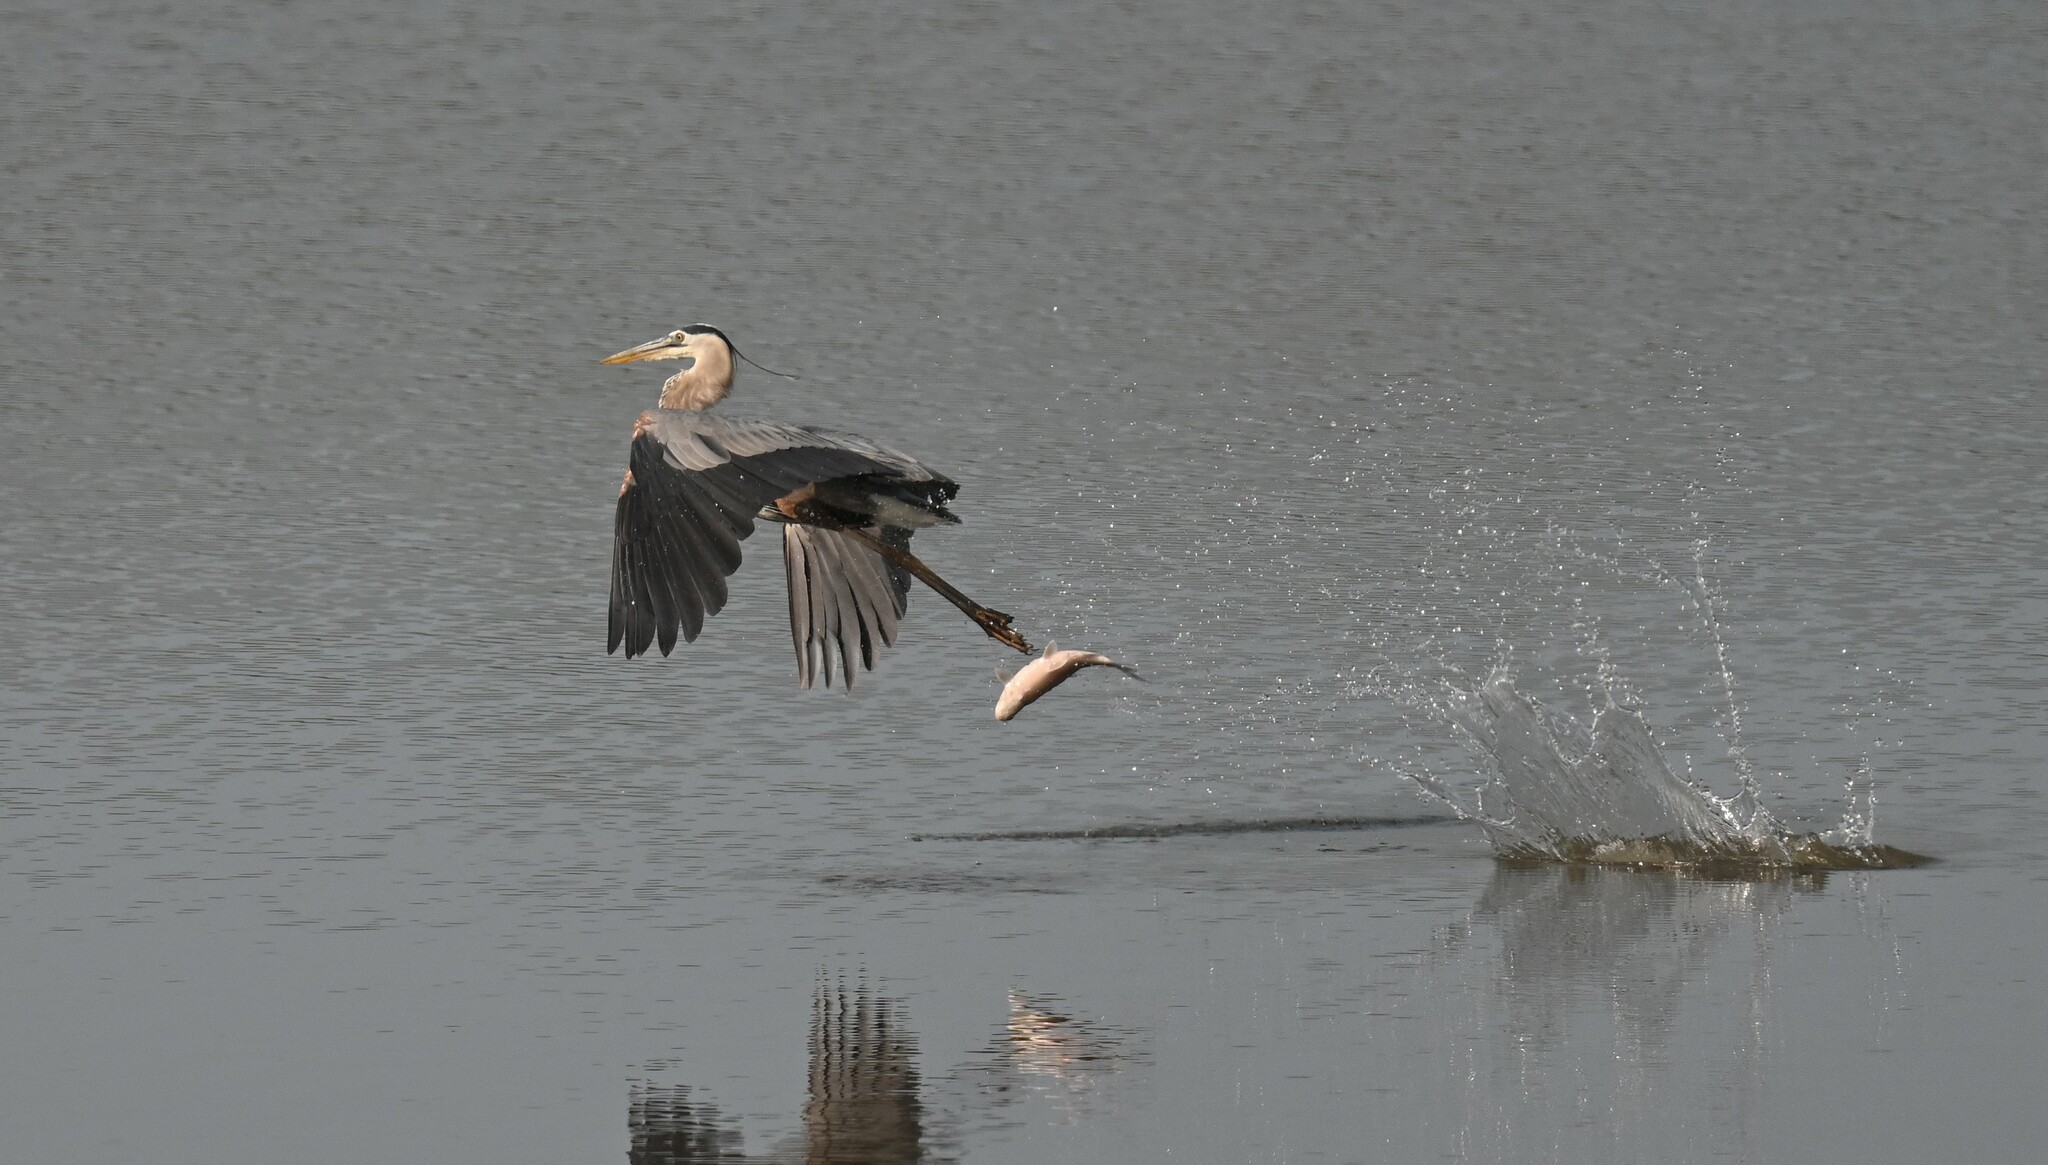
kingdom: Animalia
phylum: Chordata
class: Aves
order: Pelecaniformes
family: Ardeidae
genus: Ardea
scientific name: Ardea herodias
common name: Great blue heron
